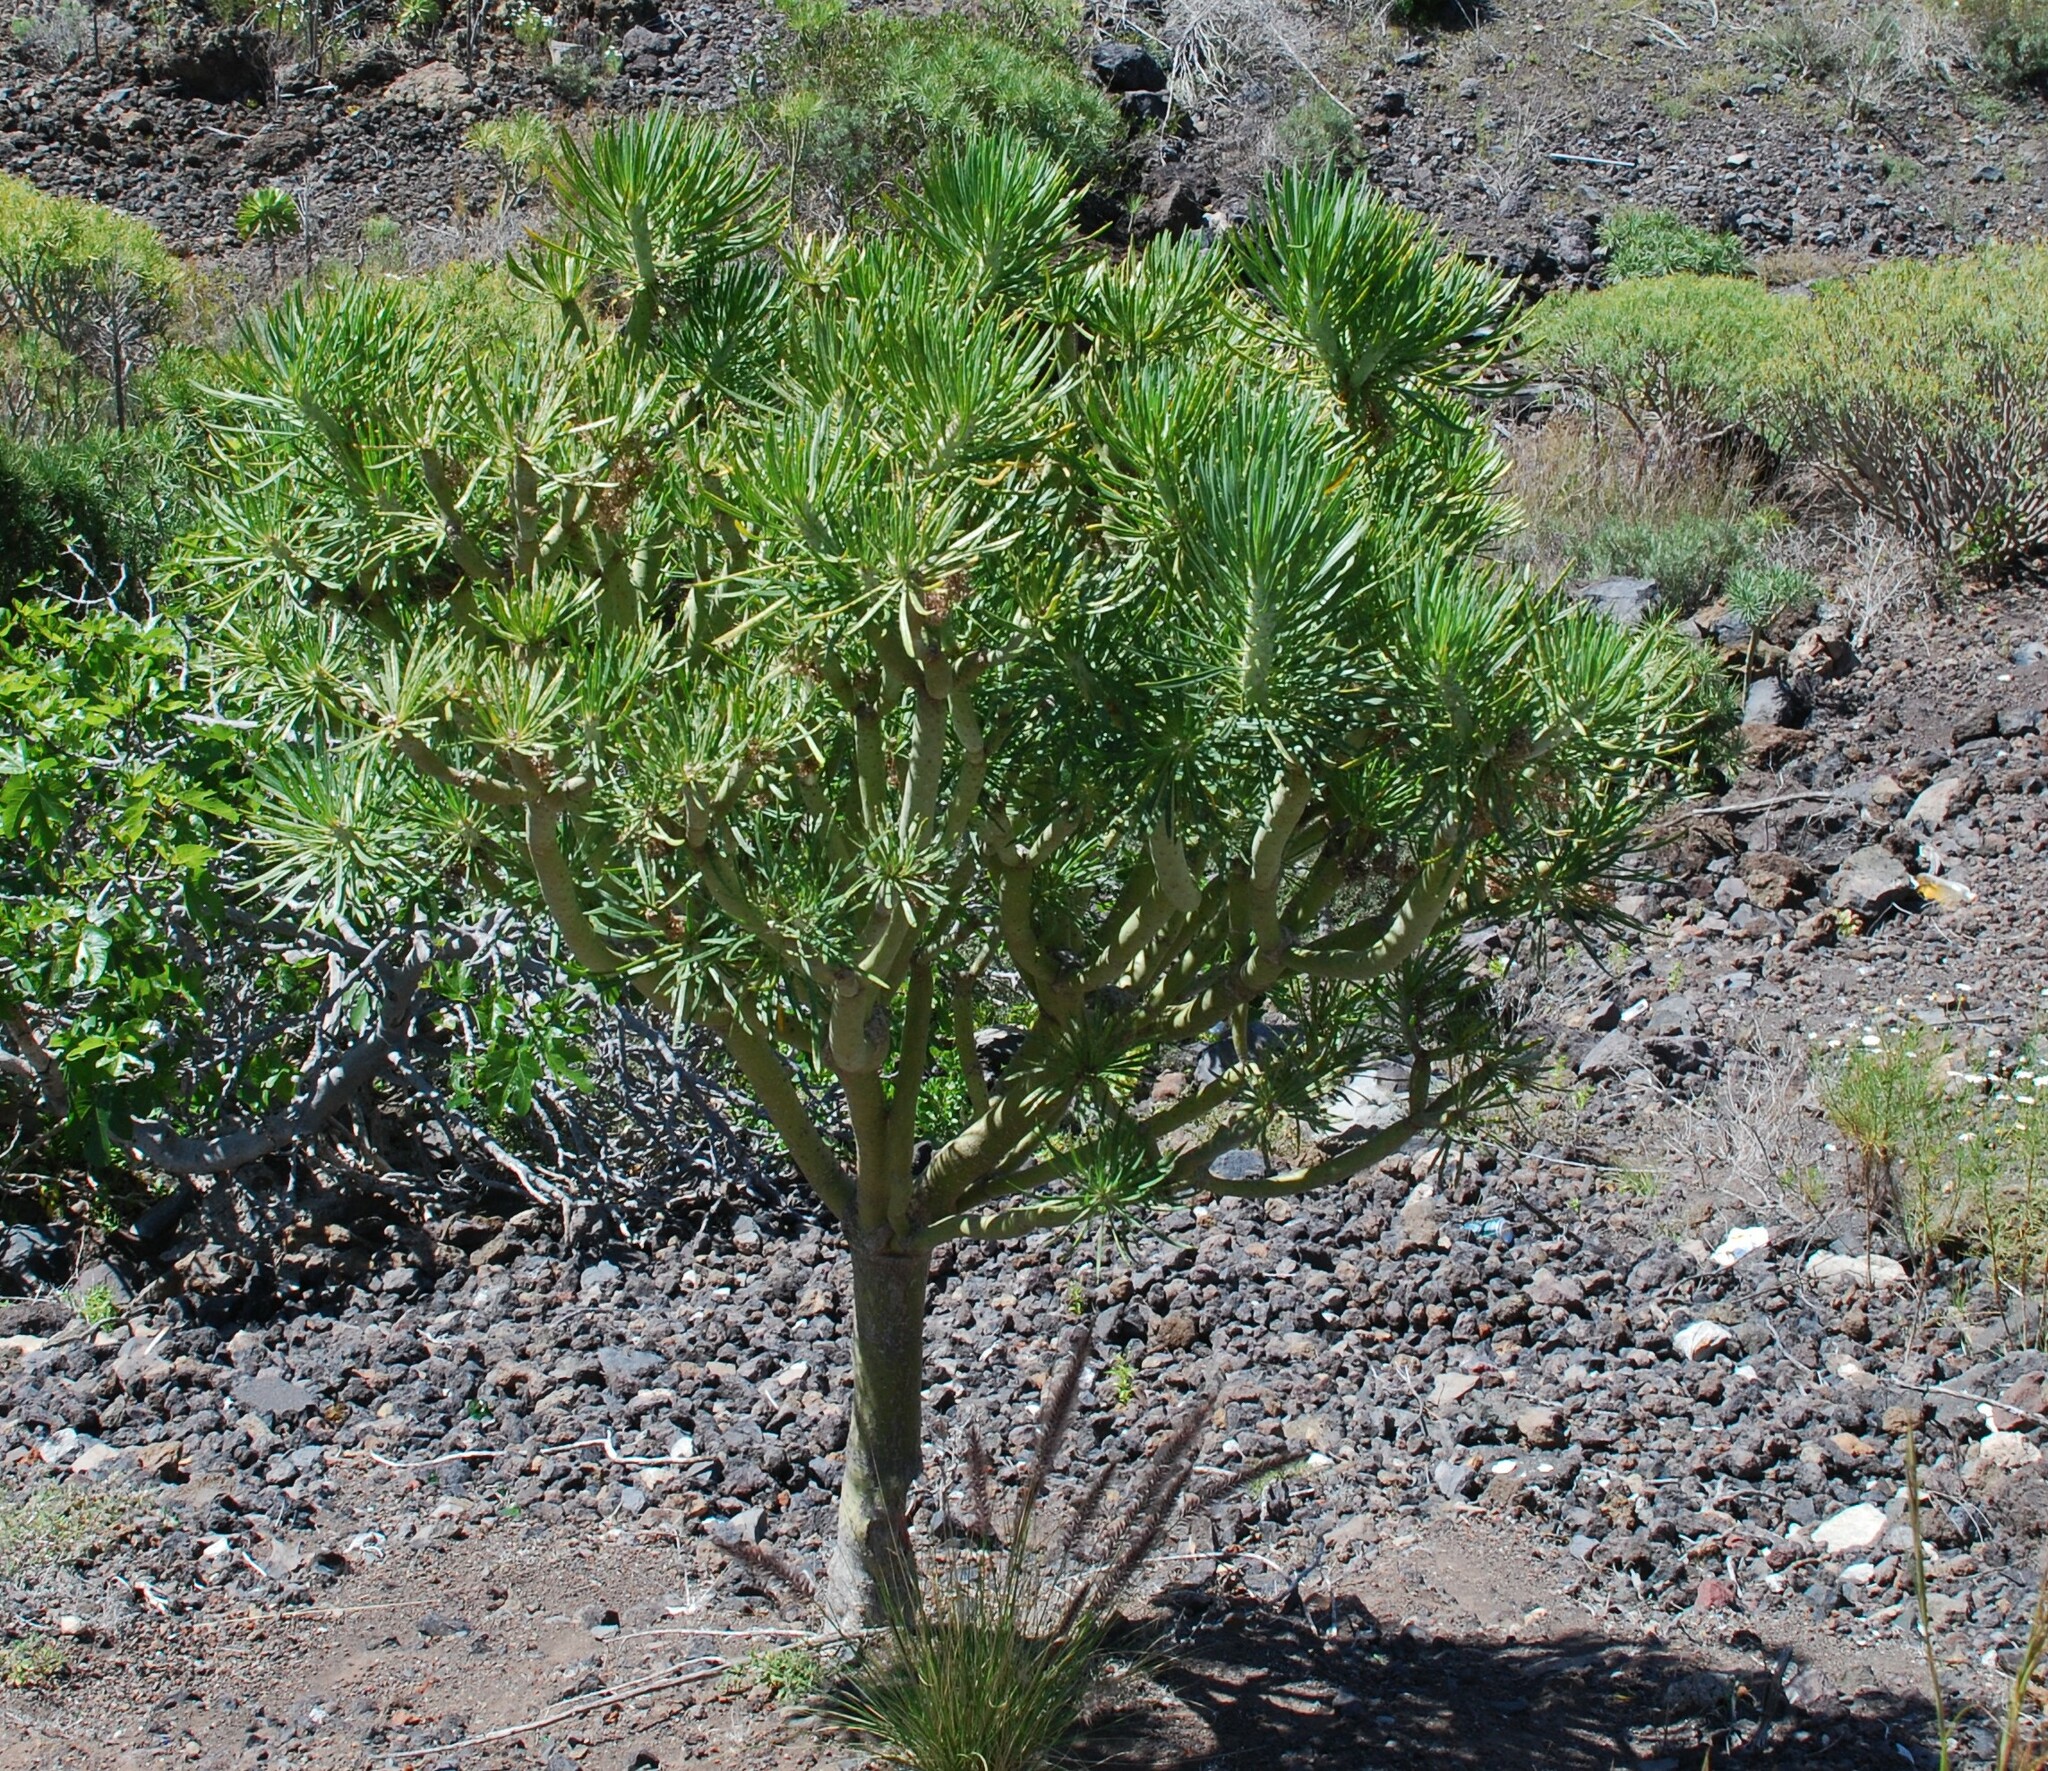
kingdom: Plantae
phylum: Tracheophyta
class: Magnoliopsida
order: Asterales
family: Asteraceae
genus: Kleinia
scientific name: Kleinia neriifolia
